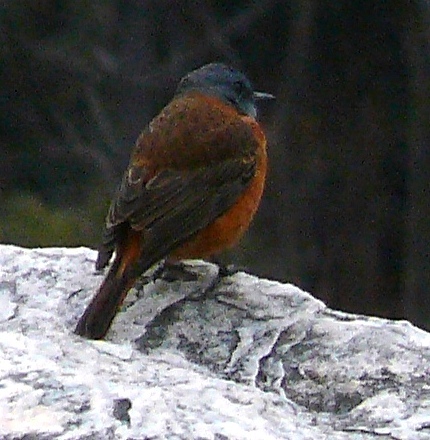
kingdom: Animalia
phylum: Chordata
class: Aves
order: Passeriformes
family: Muscicapidae
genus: Monticola
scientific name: Monticola rupestris
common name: Cape rock thrush
